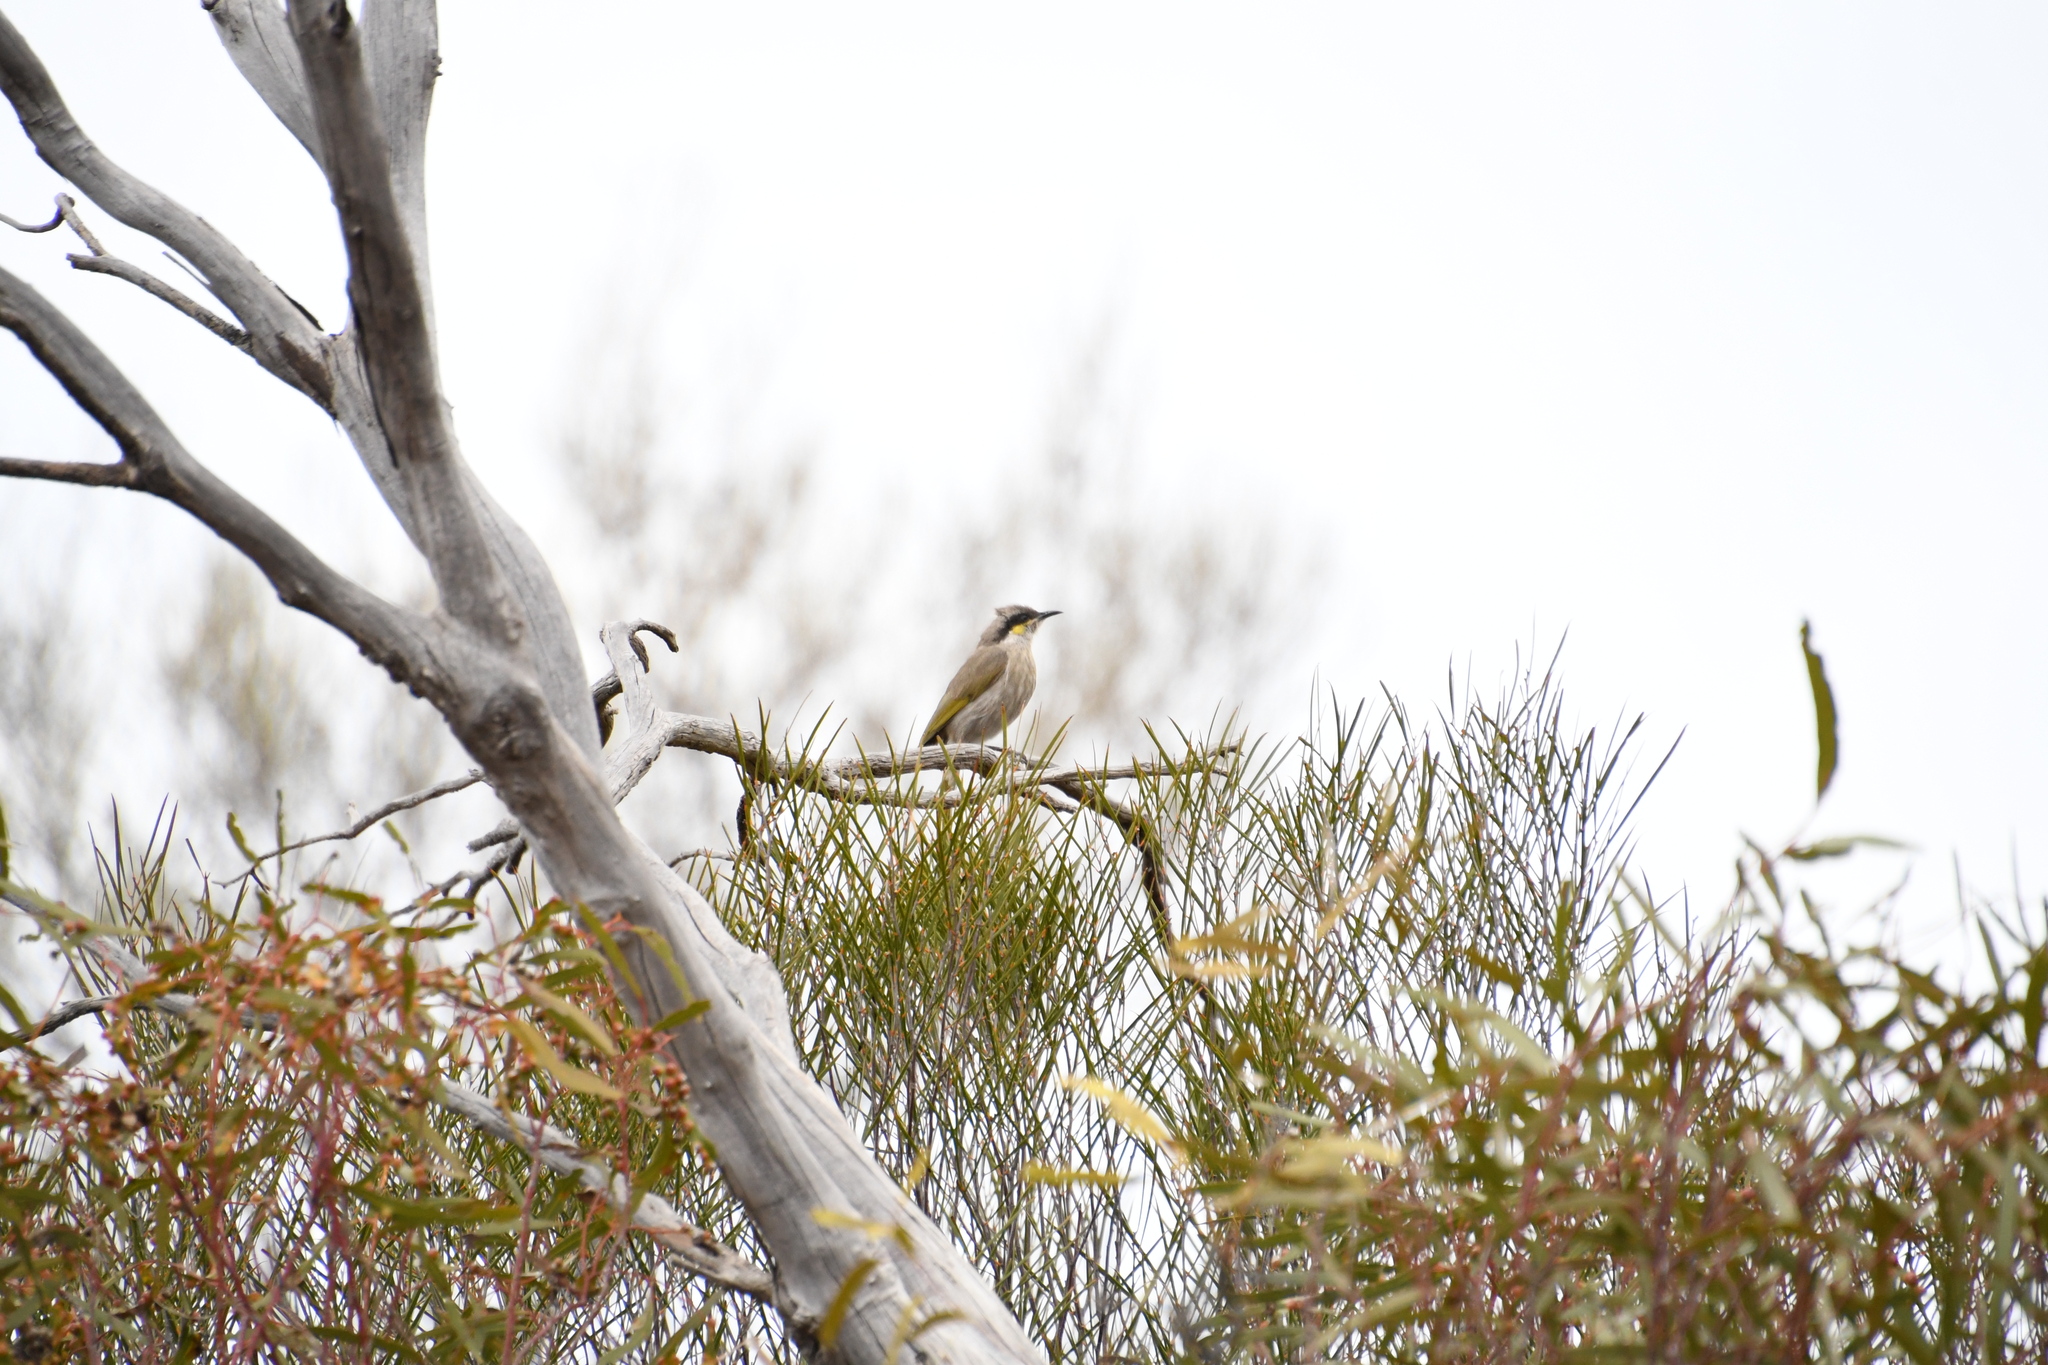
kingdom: Animalia
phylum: Chordata
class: Aves
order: Passeriformes
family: Meliphagidae
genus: Gavicalis
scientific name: Gavicalis virescens
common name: Singing honeyeater
